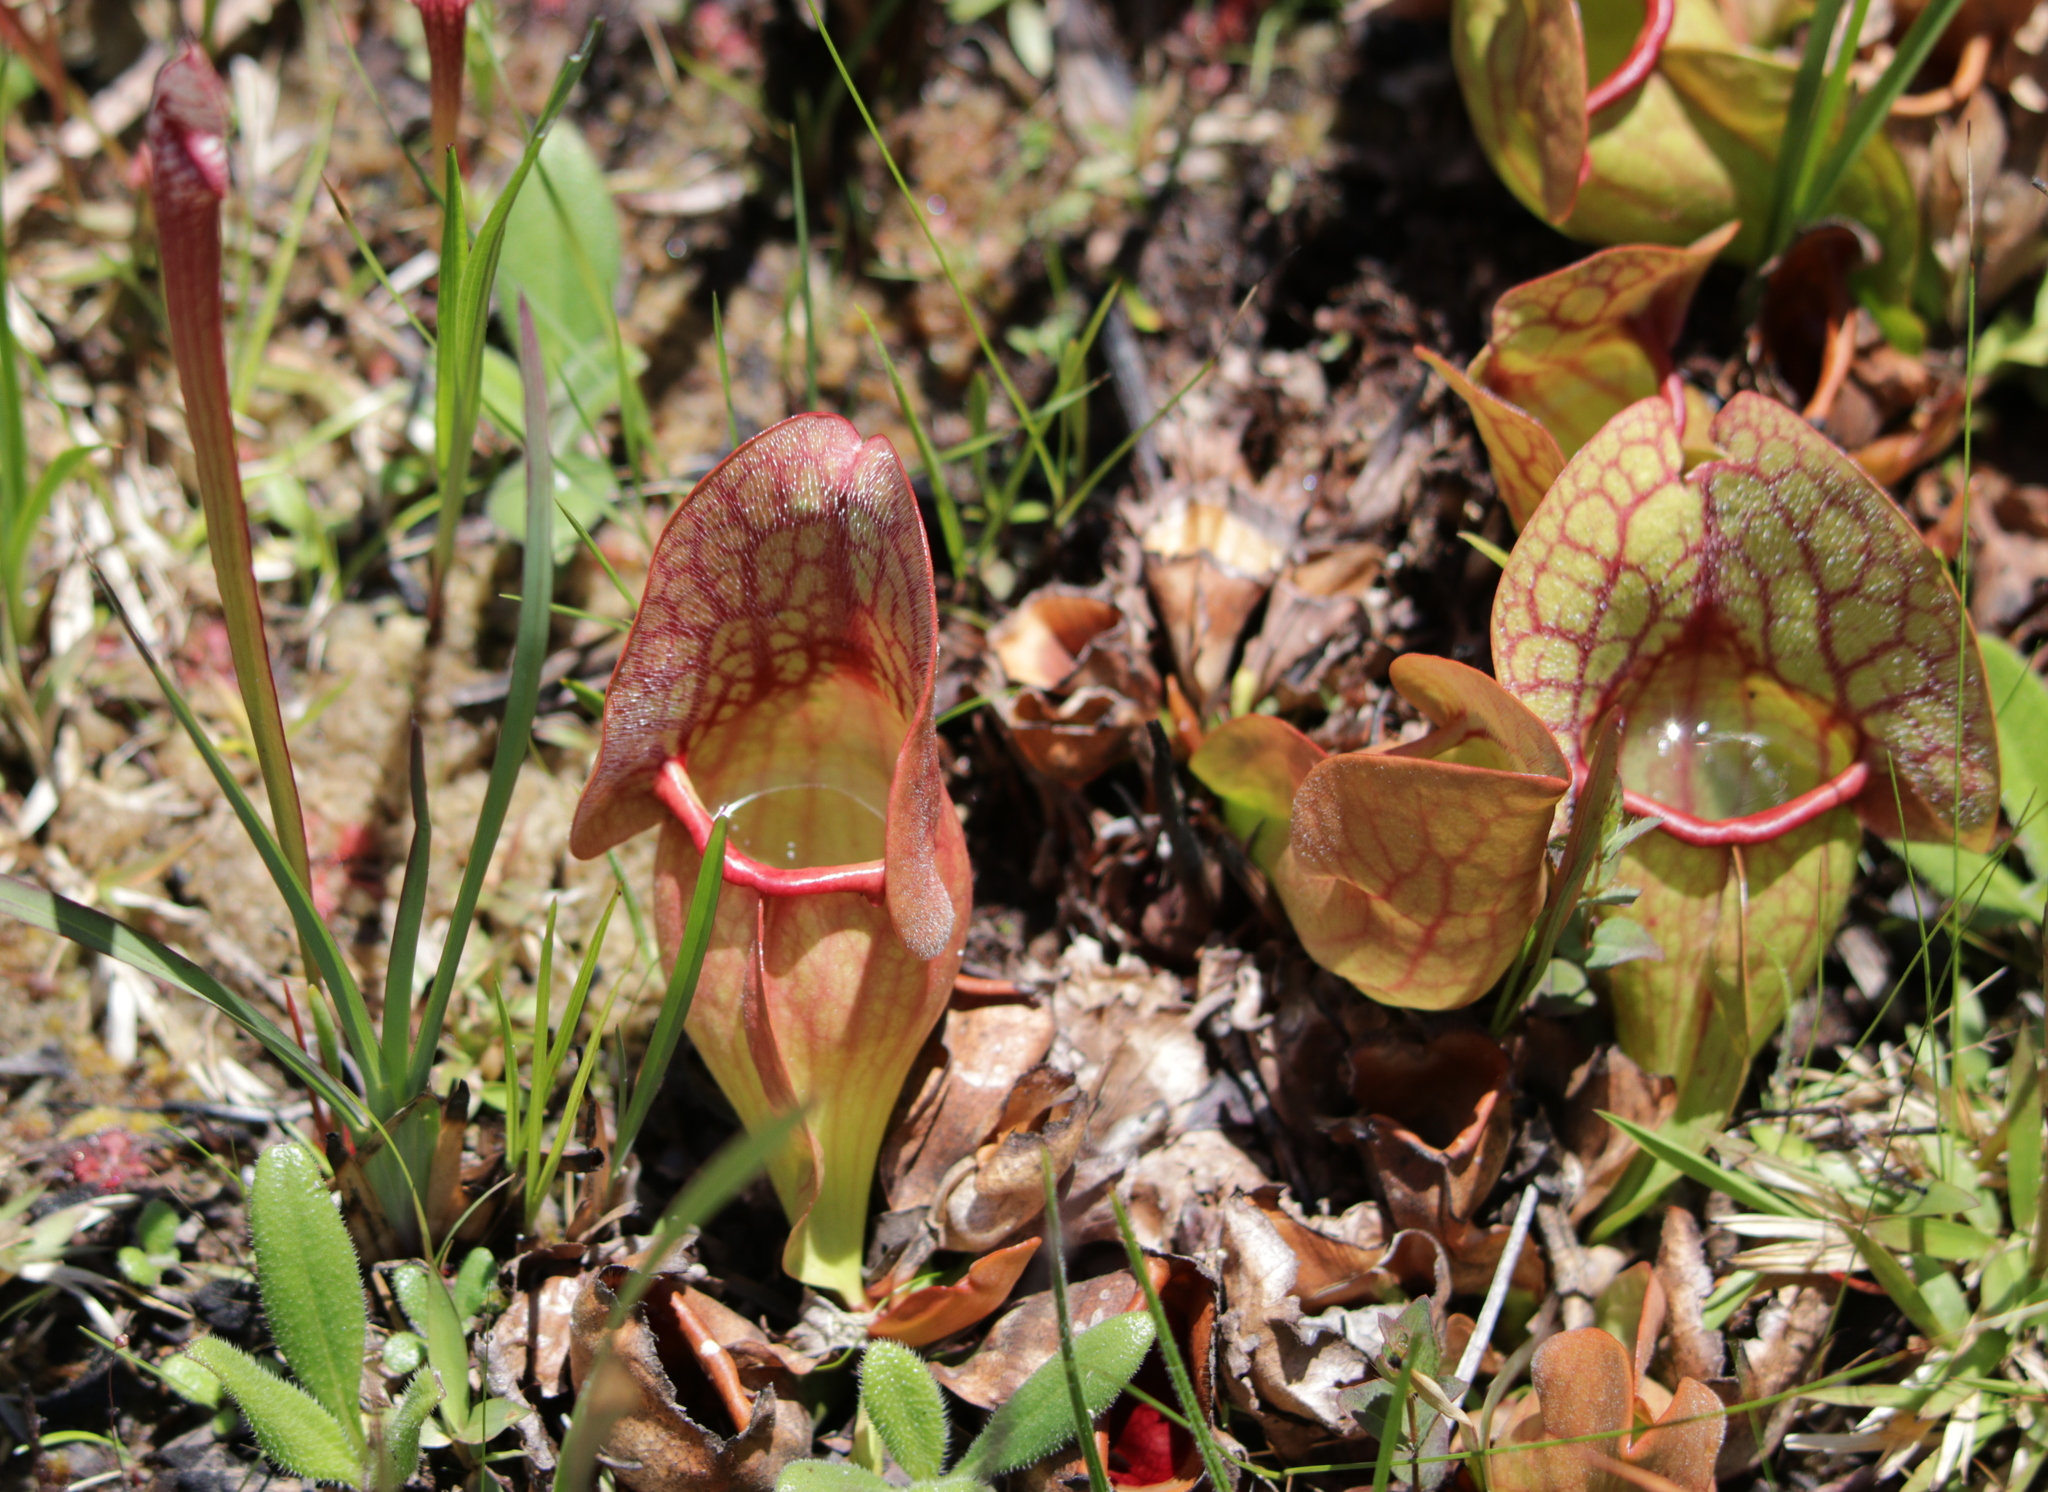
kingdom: Plantae
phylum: Tracheophyta
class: Magnoliopsida
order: Ericales
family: Sarraceniaceae
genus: Sarracenia
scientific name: Sarracenia rosea
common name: Pink pitcherplant
